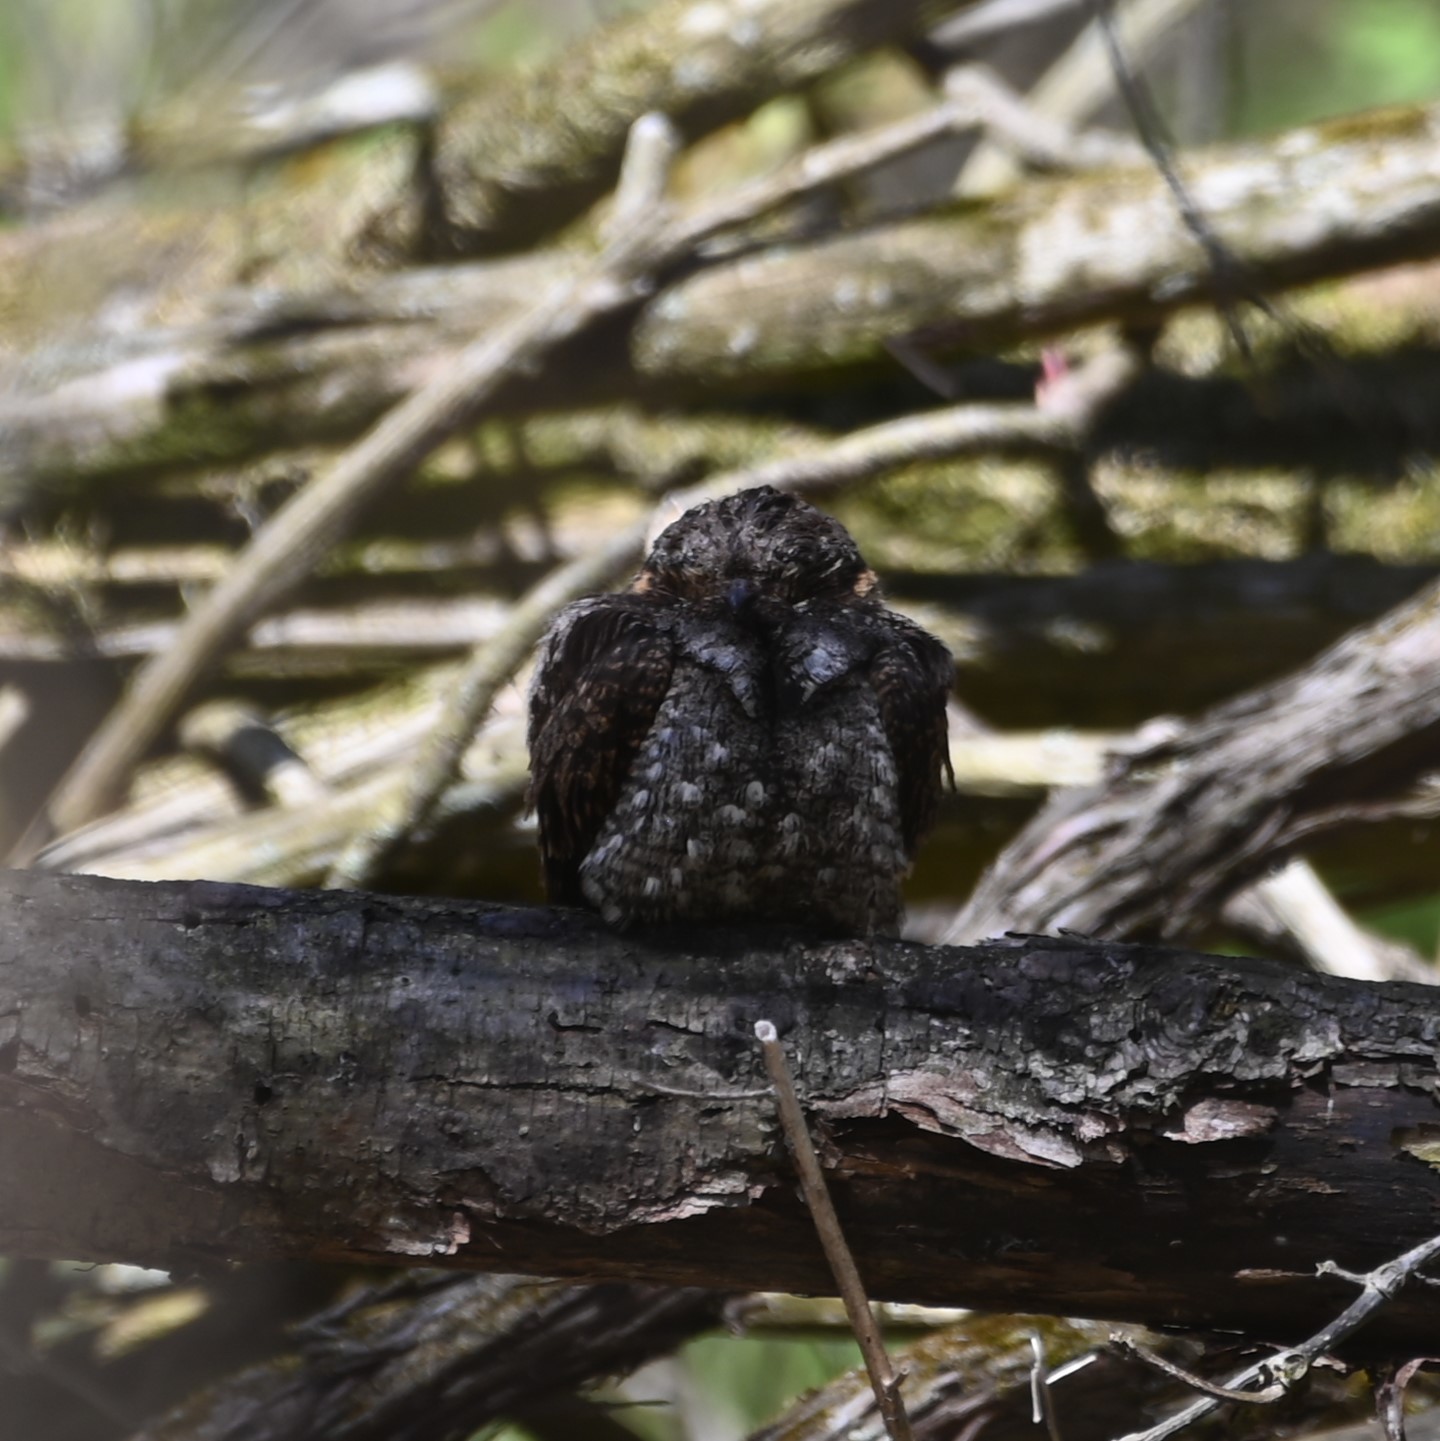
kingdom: Animalia
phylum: Chordata
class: Aves
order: Caprimulgiformes
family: Caprimulgidae
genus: Antrostomus
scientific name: Antrostomus vociferus
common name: Eastern whip-poor-will
